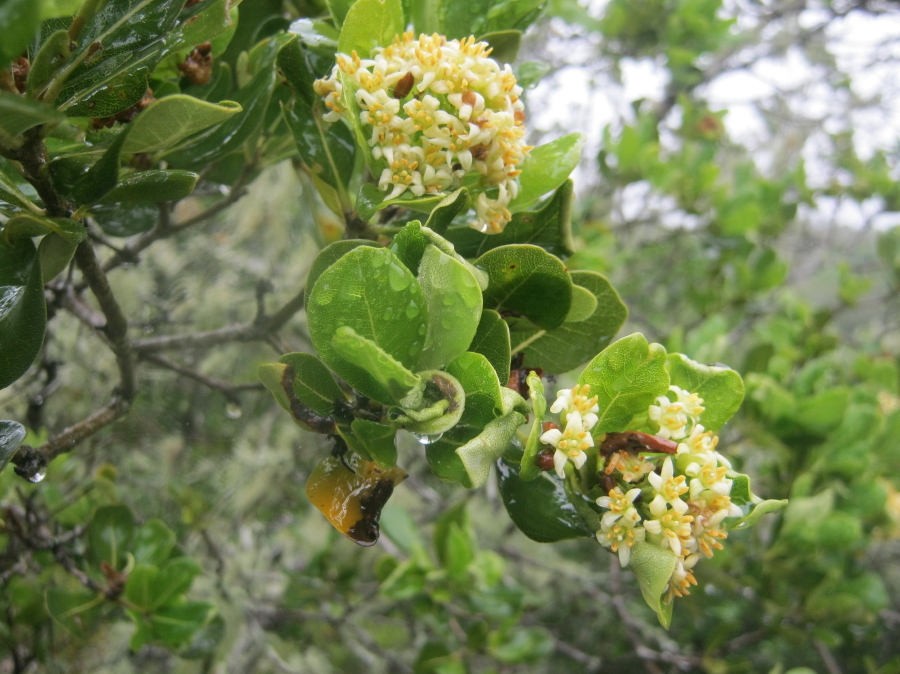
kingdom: Plantae
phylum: Tracheophyta
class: Magnoliopsida
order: Apiales
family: Pittosporaceae
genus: Pittosporum
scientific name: Pittosporum viridiflorum
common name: Cape cheesewood
